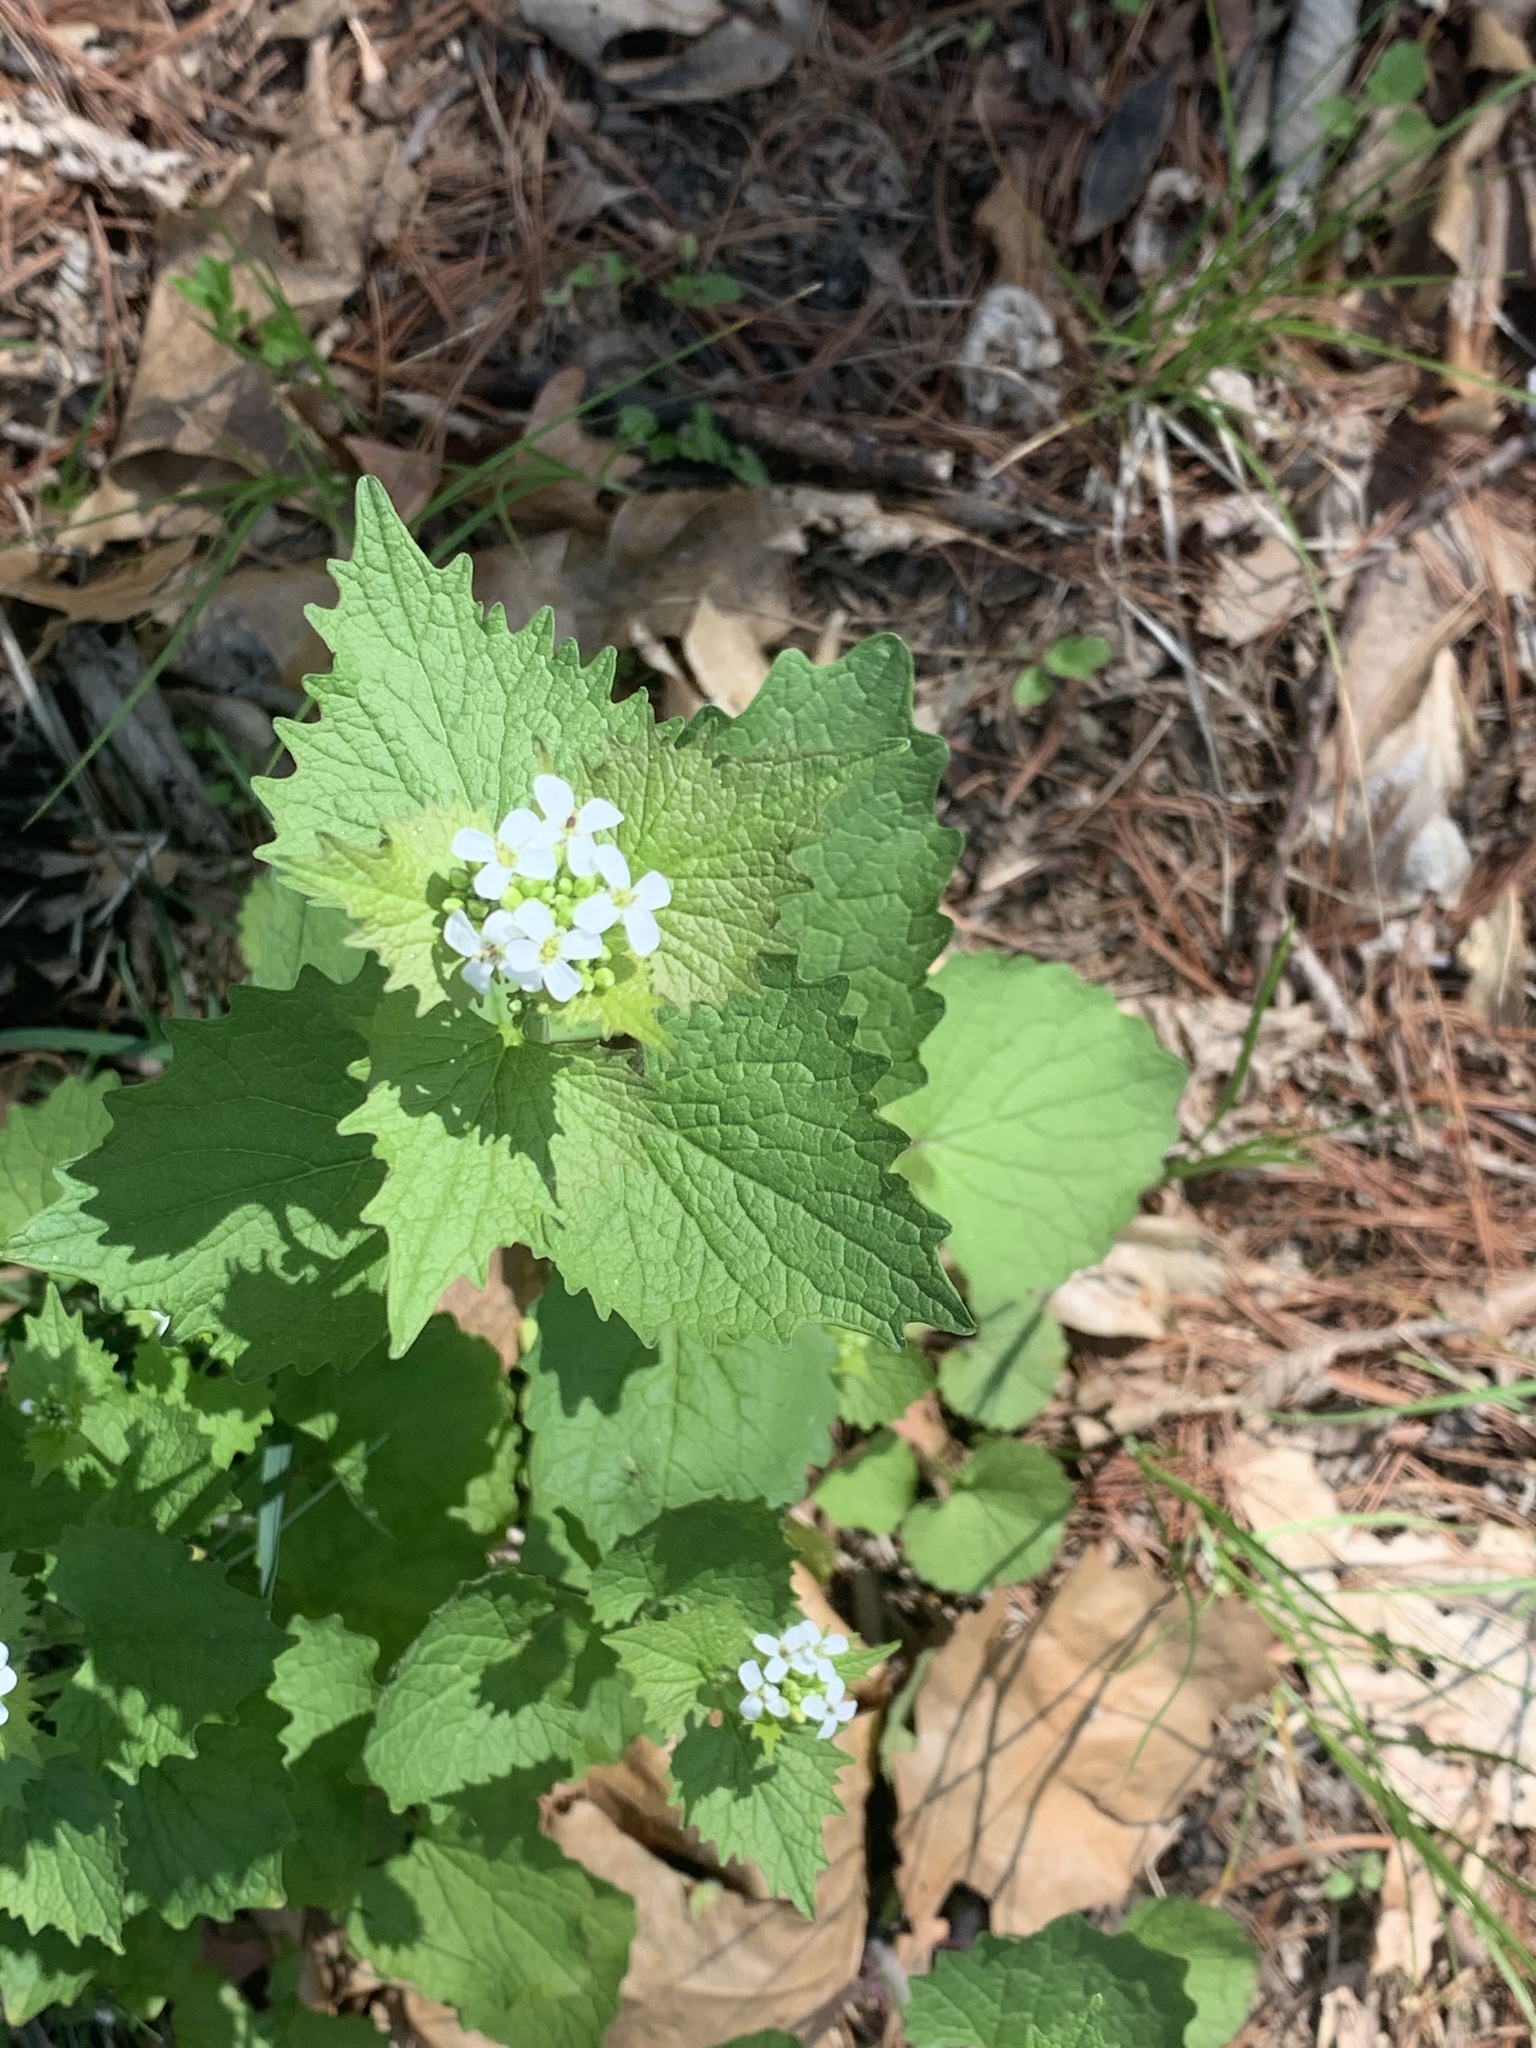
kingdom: Plantae
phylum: Tracheophyta
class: Magnoliopsida
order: Brassicales
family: Brassicaceae
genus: Alliaria
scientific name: Alliaria petiolata
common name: Garlic mustard
